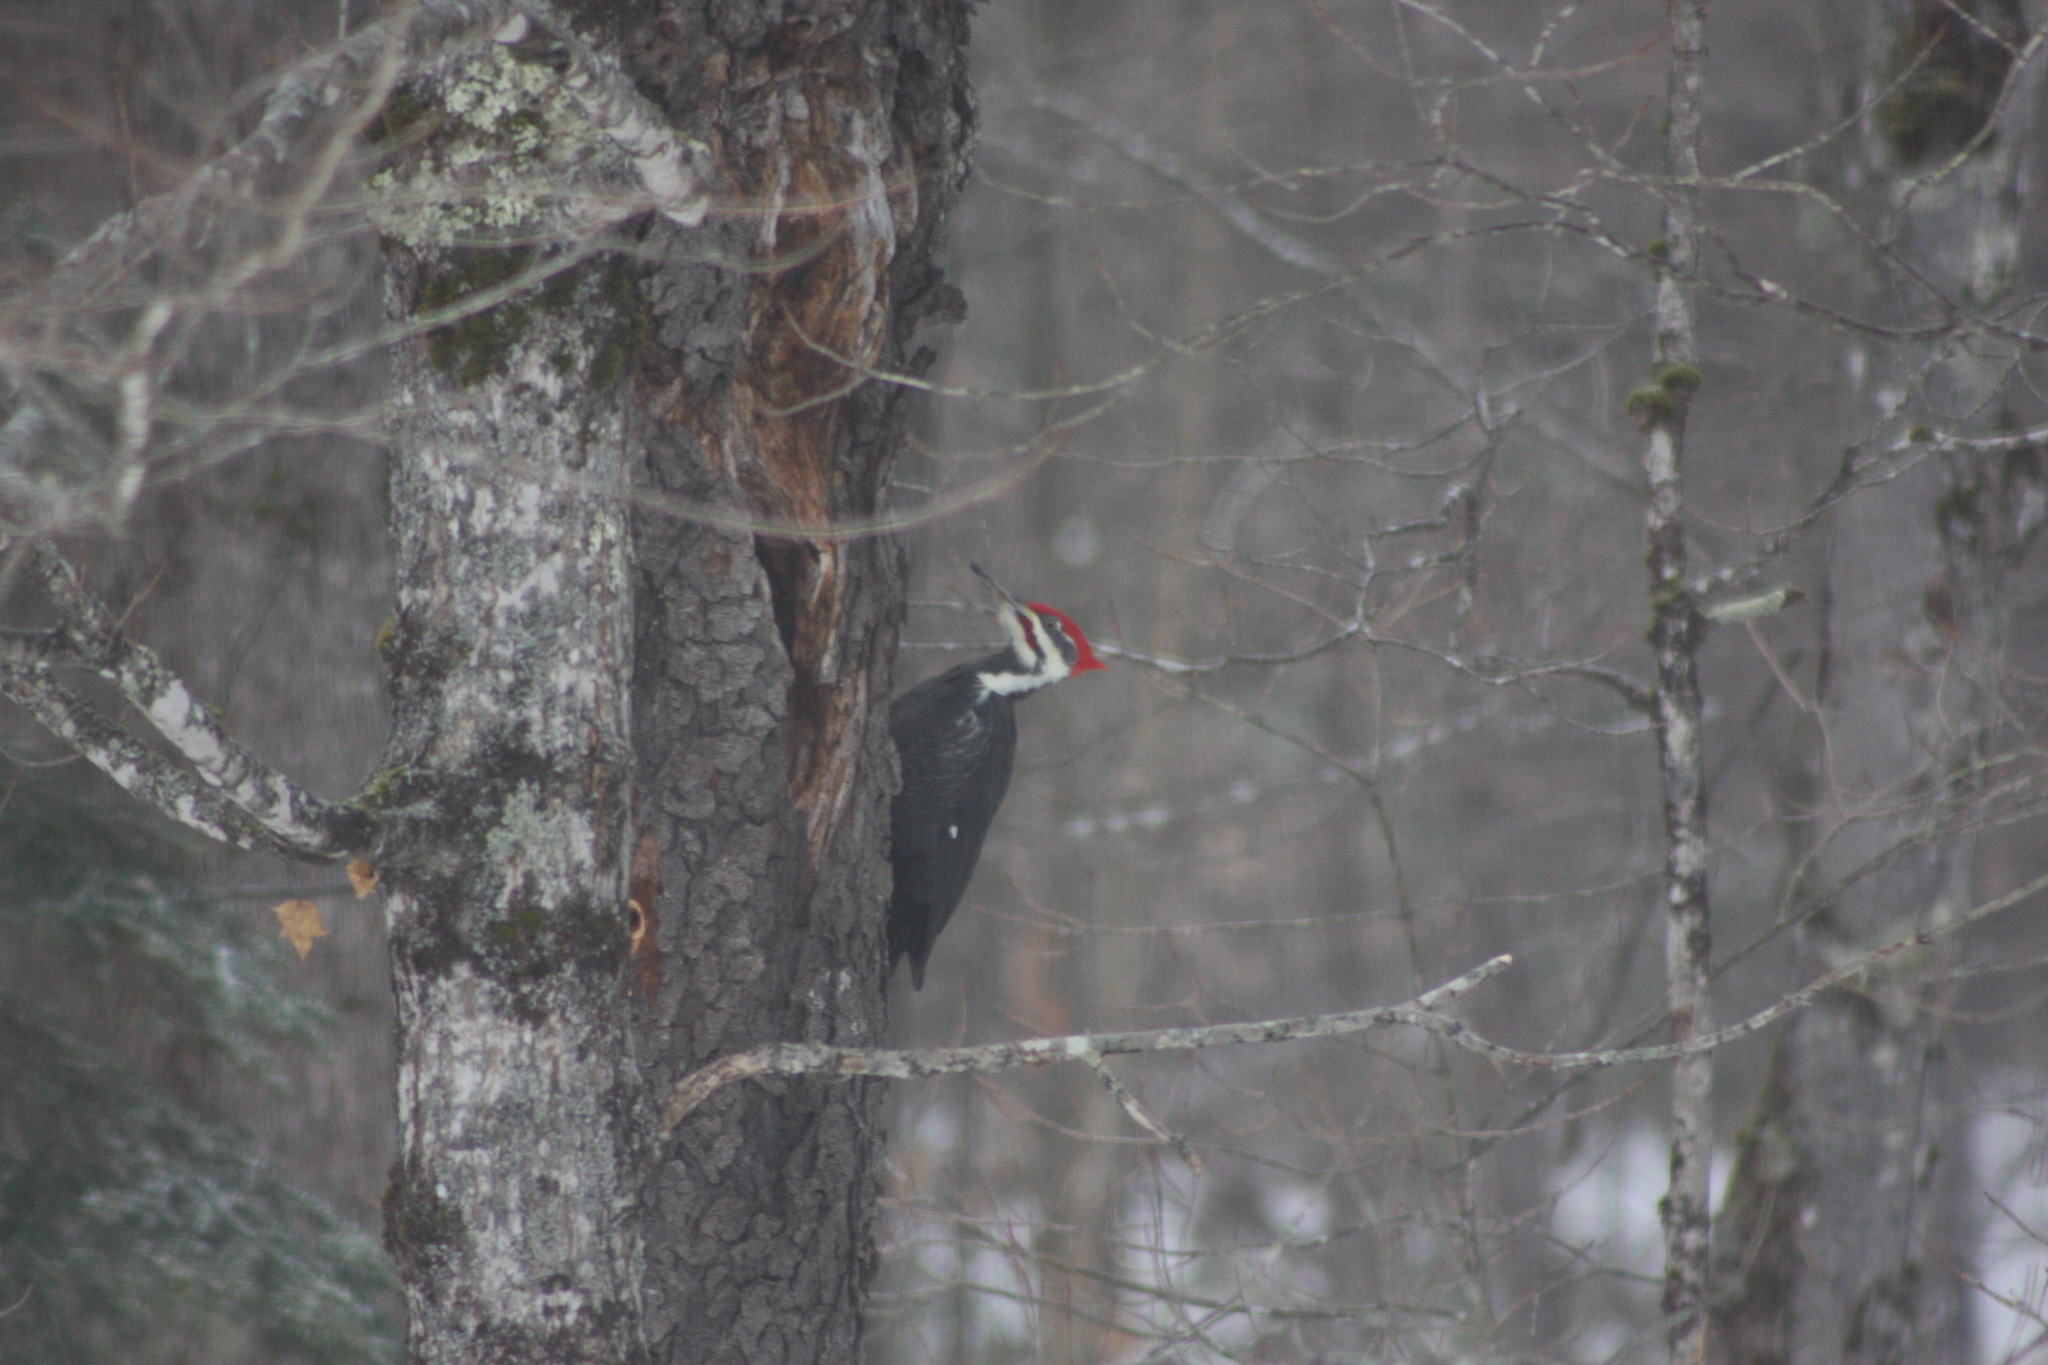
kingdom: Animalia
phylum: Chordata
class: Aves
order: Piciformes
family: Picidae
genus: Dryocopus
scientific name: Dryocopus pileatus
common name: Pileated woodpecker
